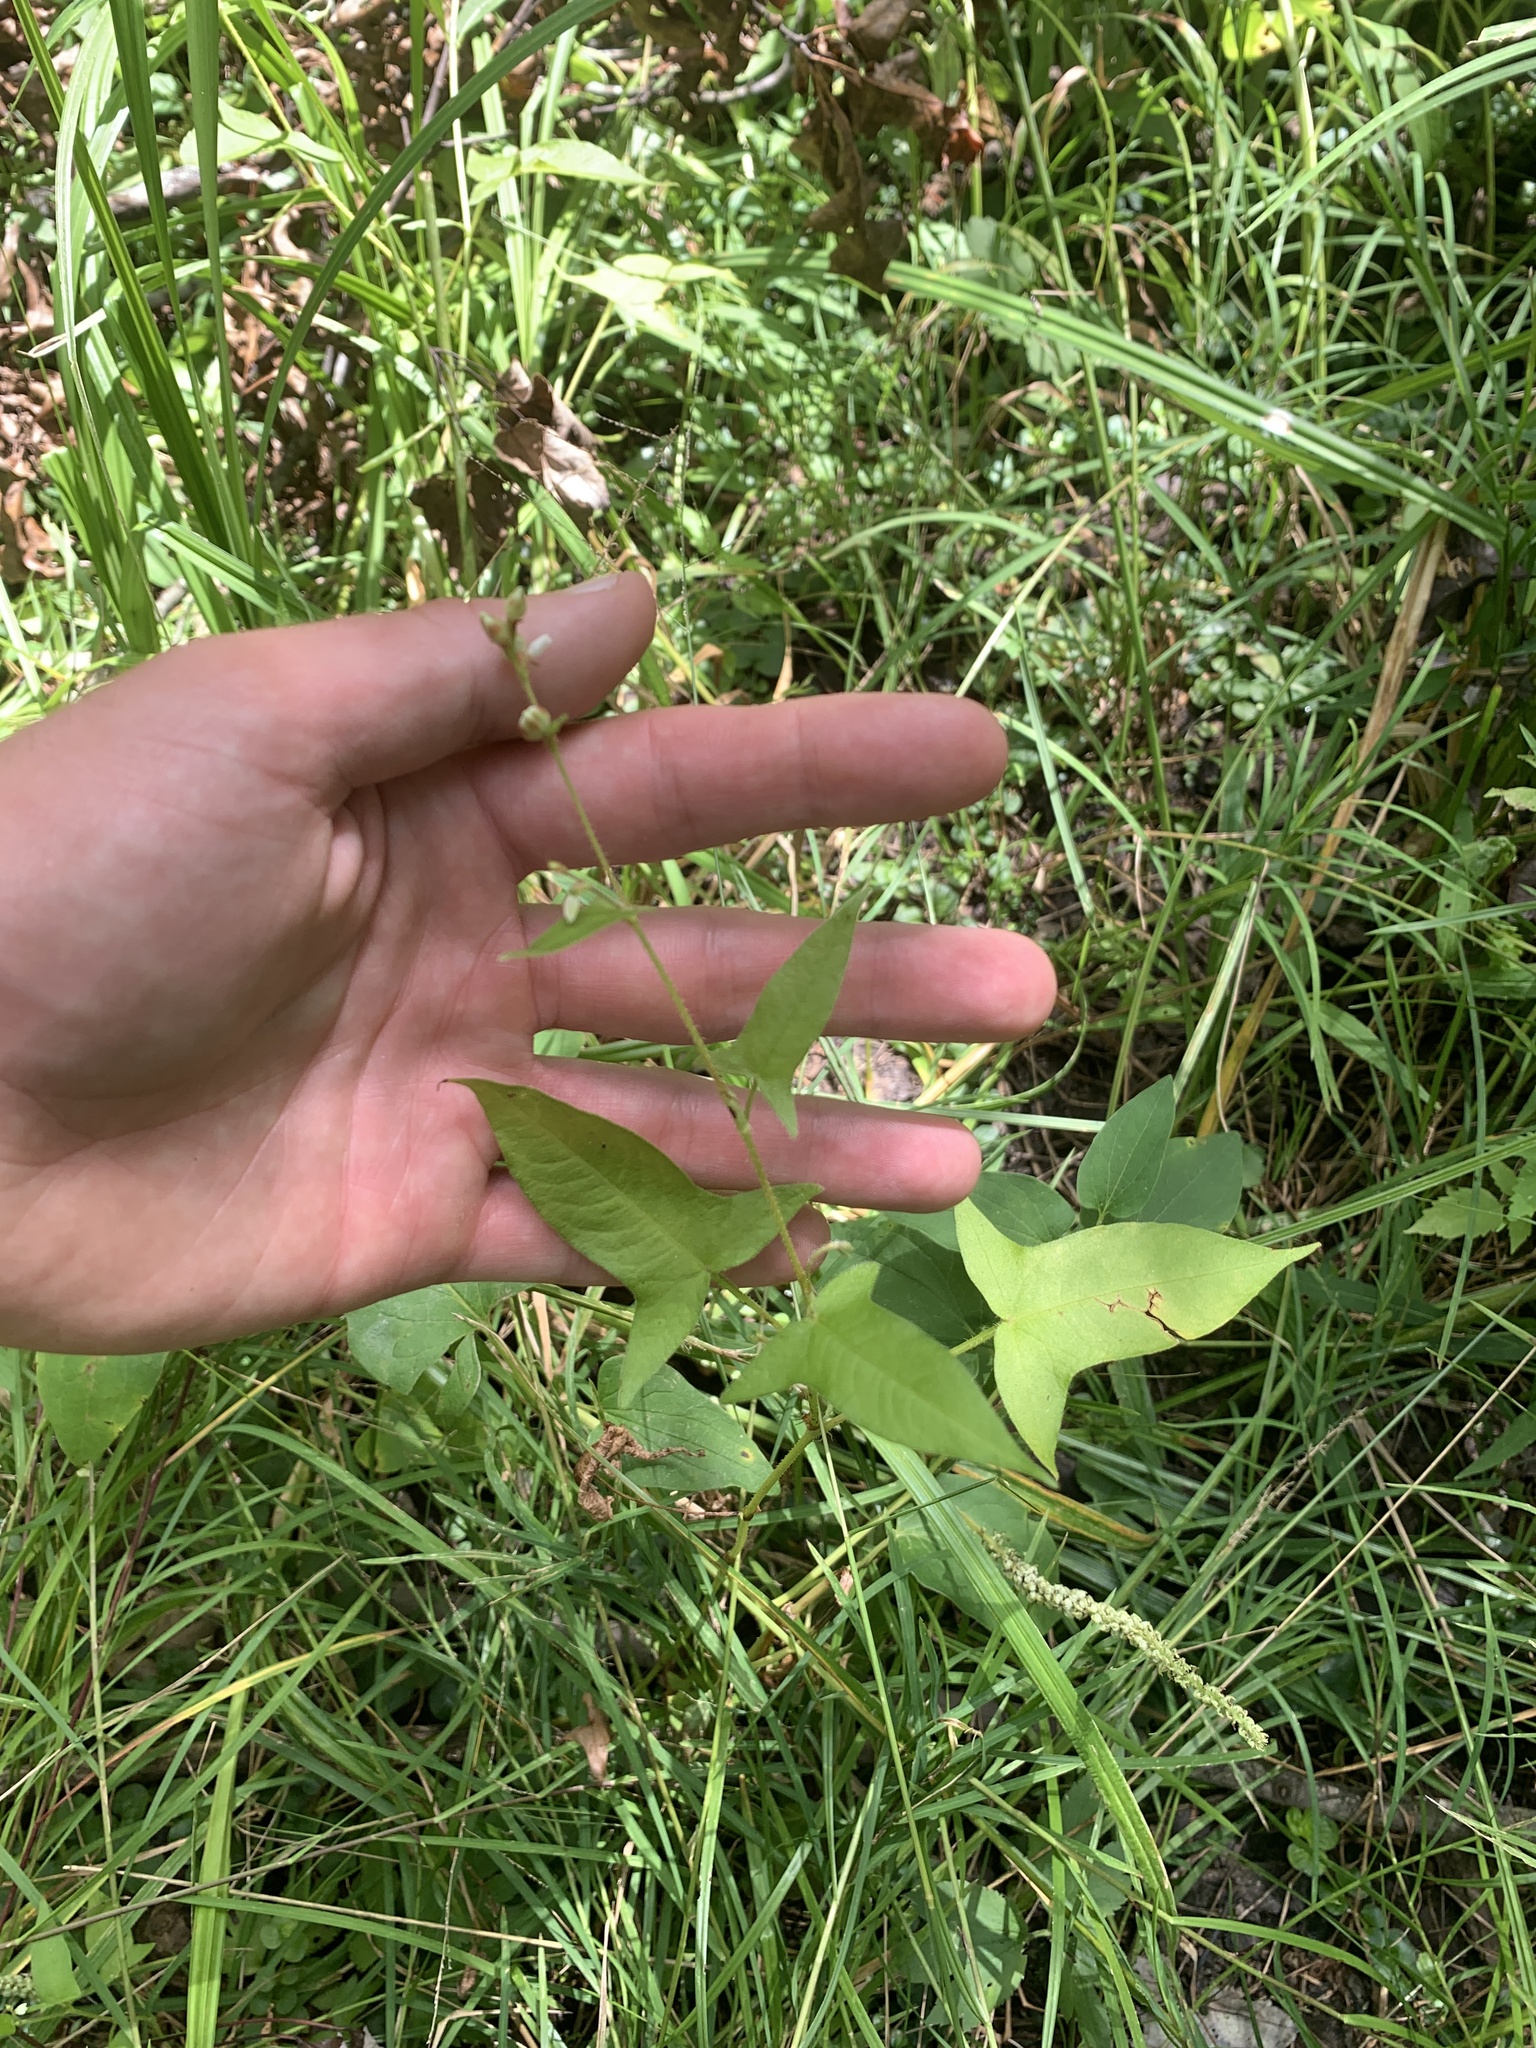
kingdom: Plantae
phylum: Tracheophyta
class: Magnoliopsida
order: Caryophyllales
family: Polygonaceae
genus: Persicaria
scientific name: Persicaria arifolia
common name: Halberd-leaved tear-thumb
